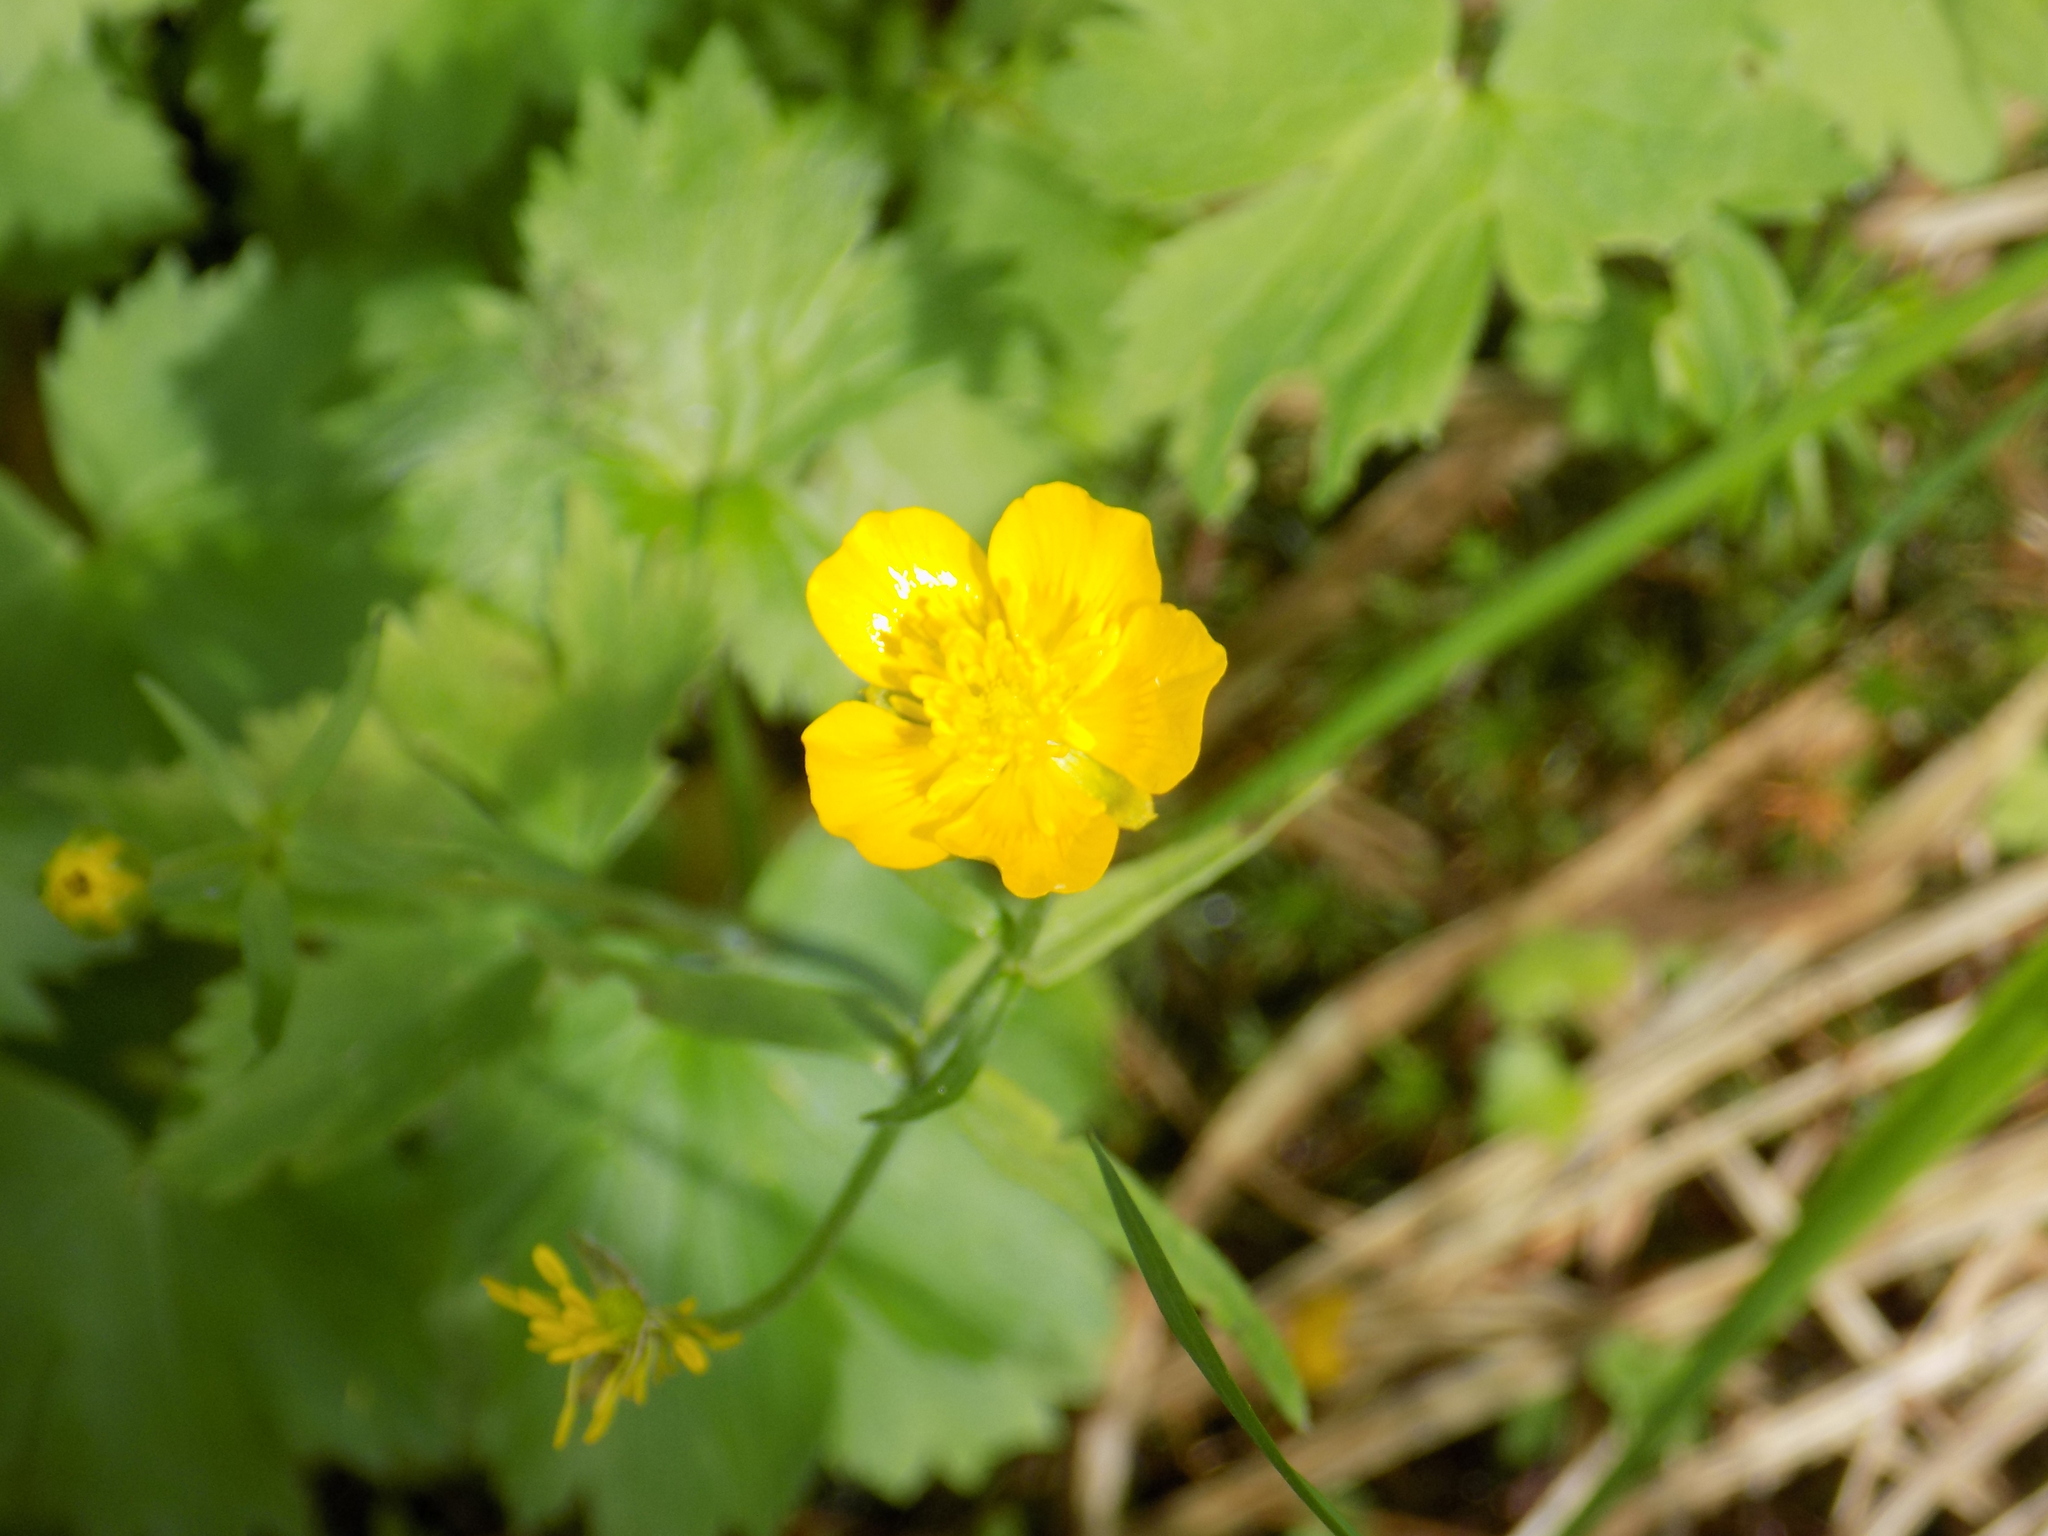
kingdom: Plantae
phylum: Tracheophyta
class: Magnoliopsida
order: Ranunculales
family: Ranunculaceae
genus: Ranunculus
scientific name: Ranunculus propinquus
